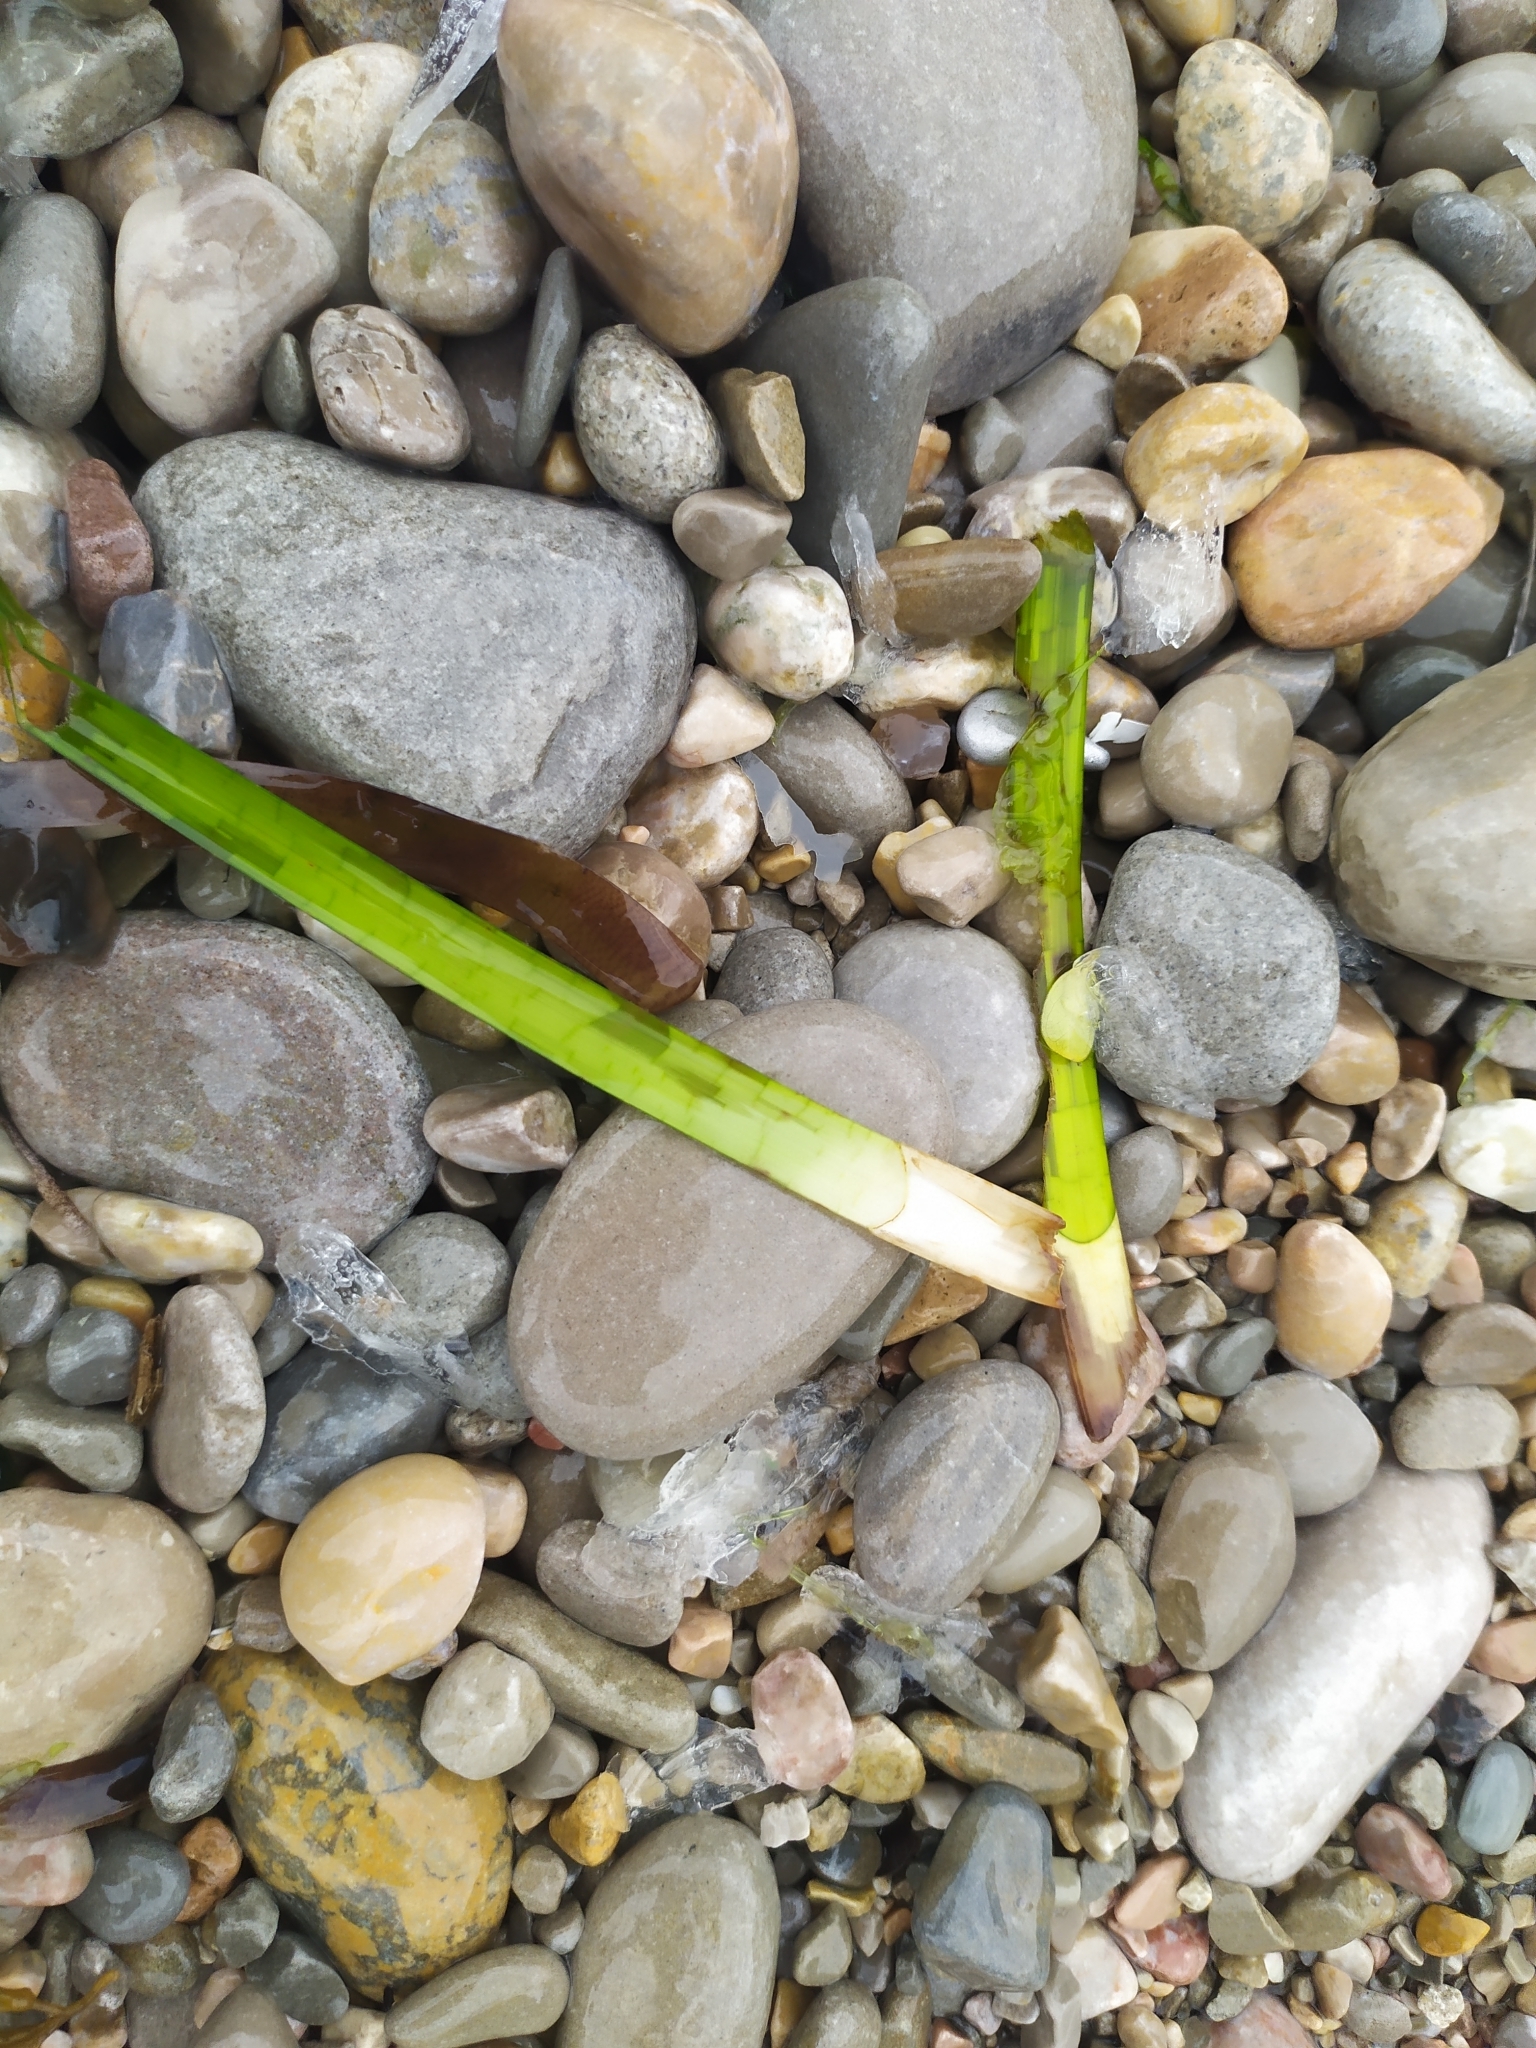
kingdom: Plantae
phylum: Tracheophyta
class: Liliopsida
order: Alismatales
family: Posidoniaceae
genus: Posidonia
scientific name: Posidonia oceanica
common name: Mediterranean tapeweed
